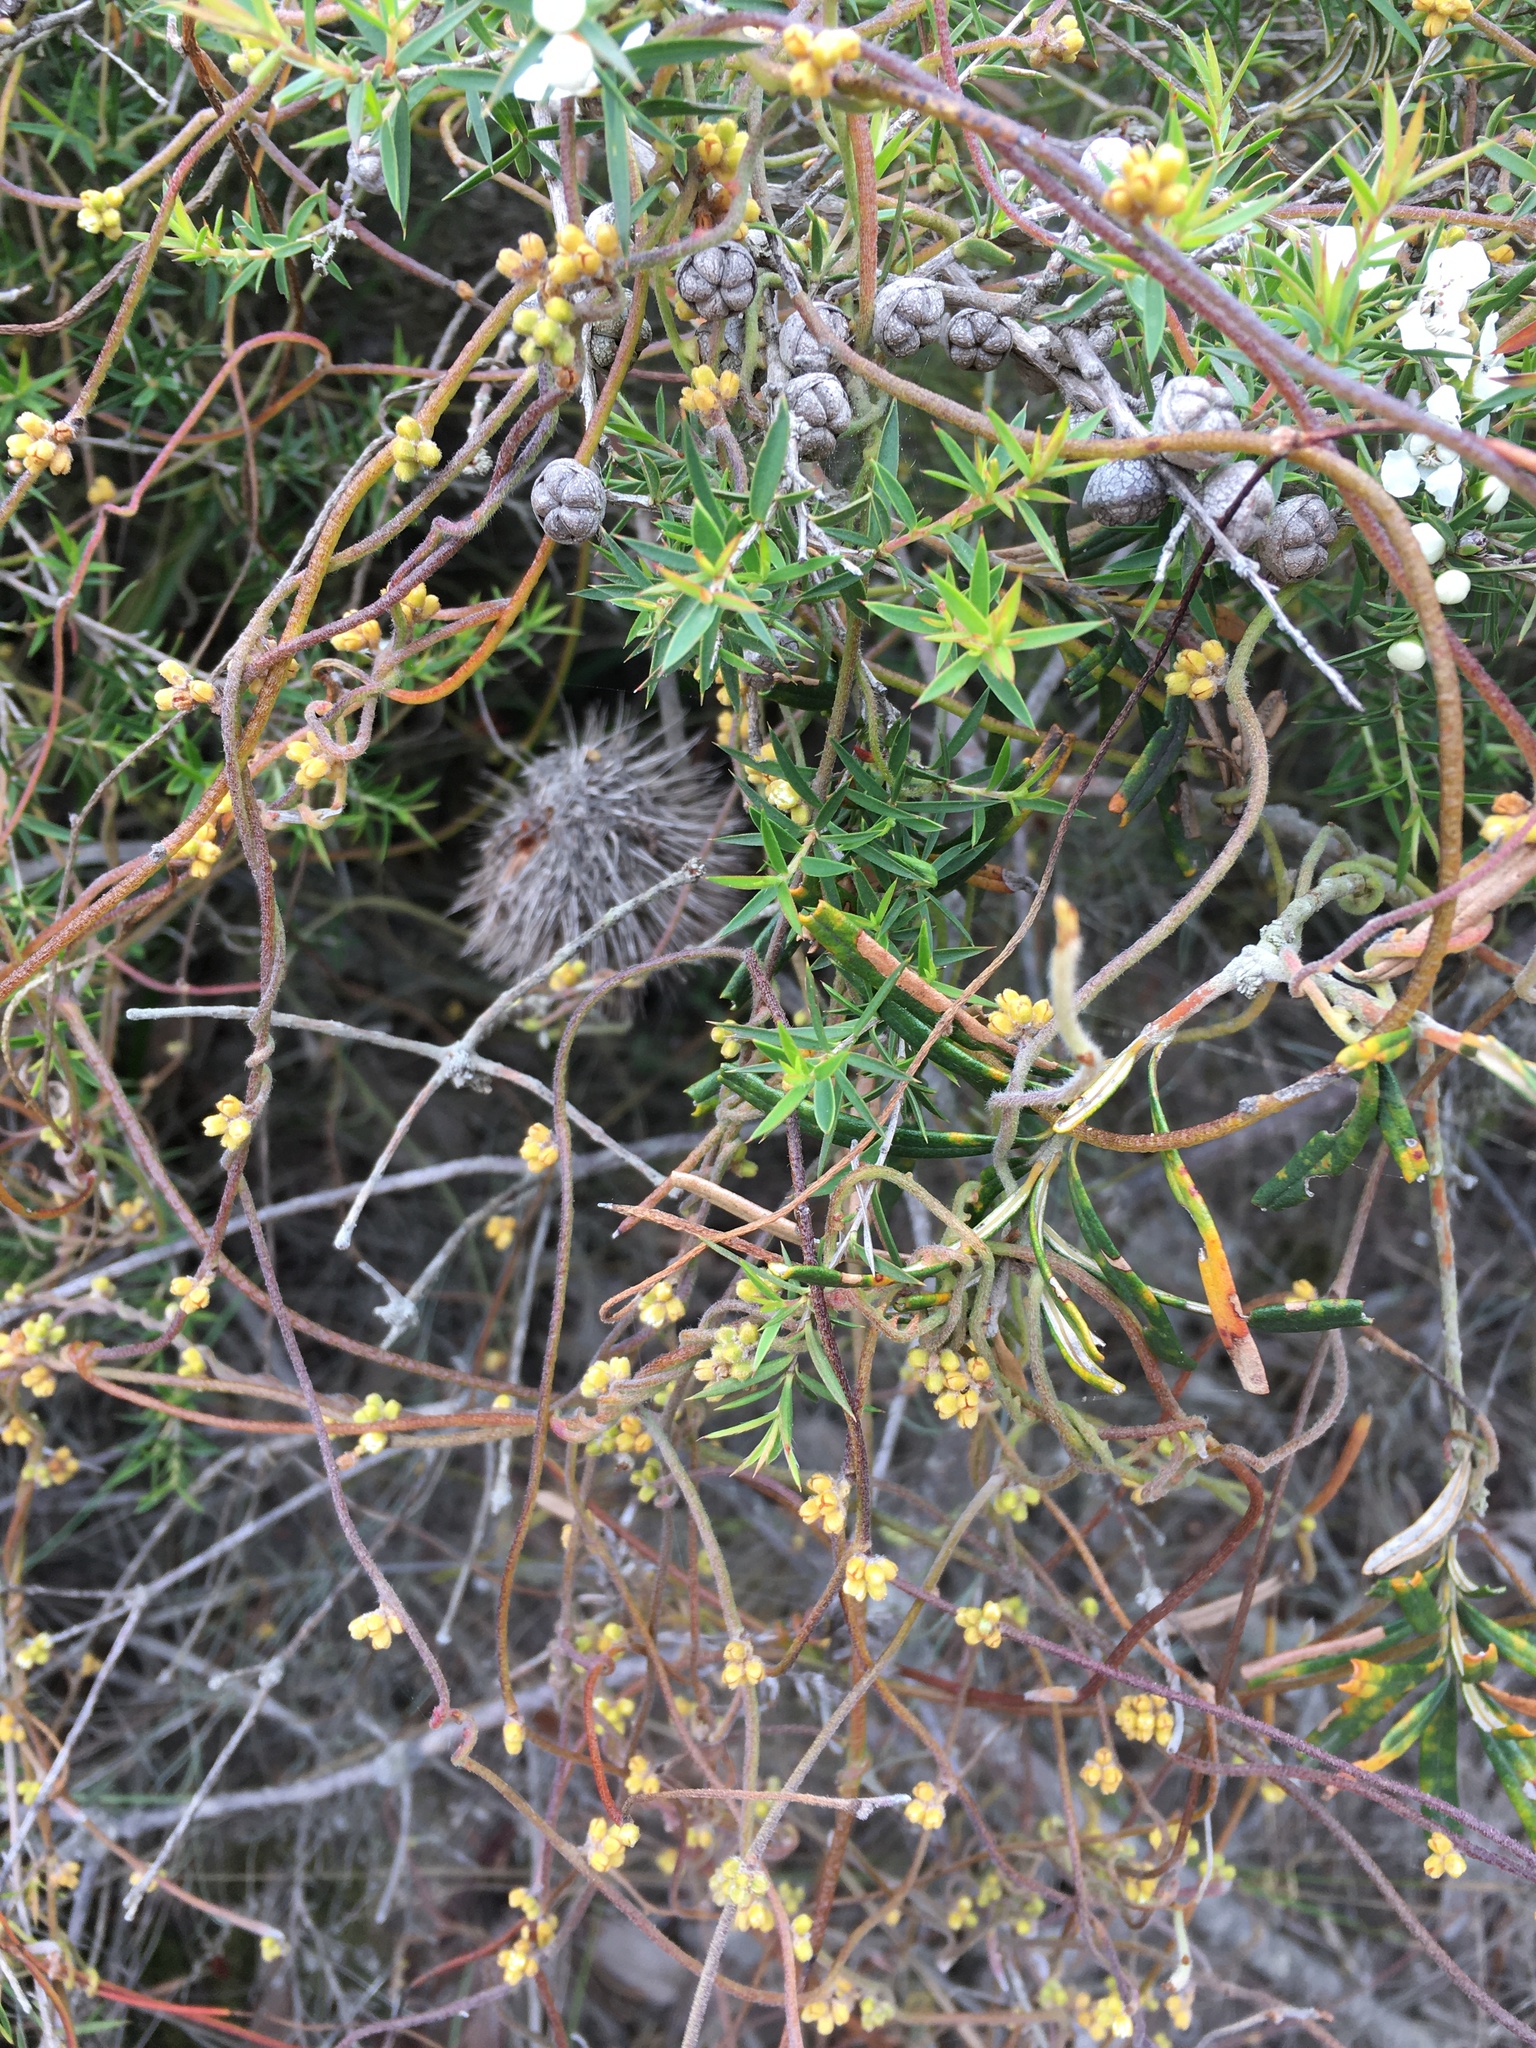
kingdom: Plantae
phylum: Tracheophyta
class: Magnoliopsida
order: Laurales
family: Lauraceae
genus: Cassytha
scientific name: Cassytha pubescens
